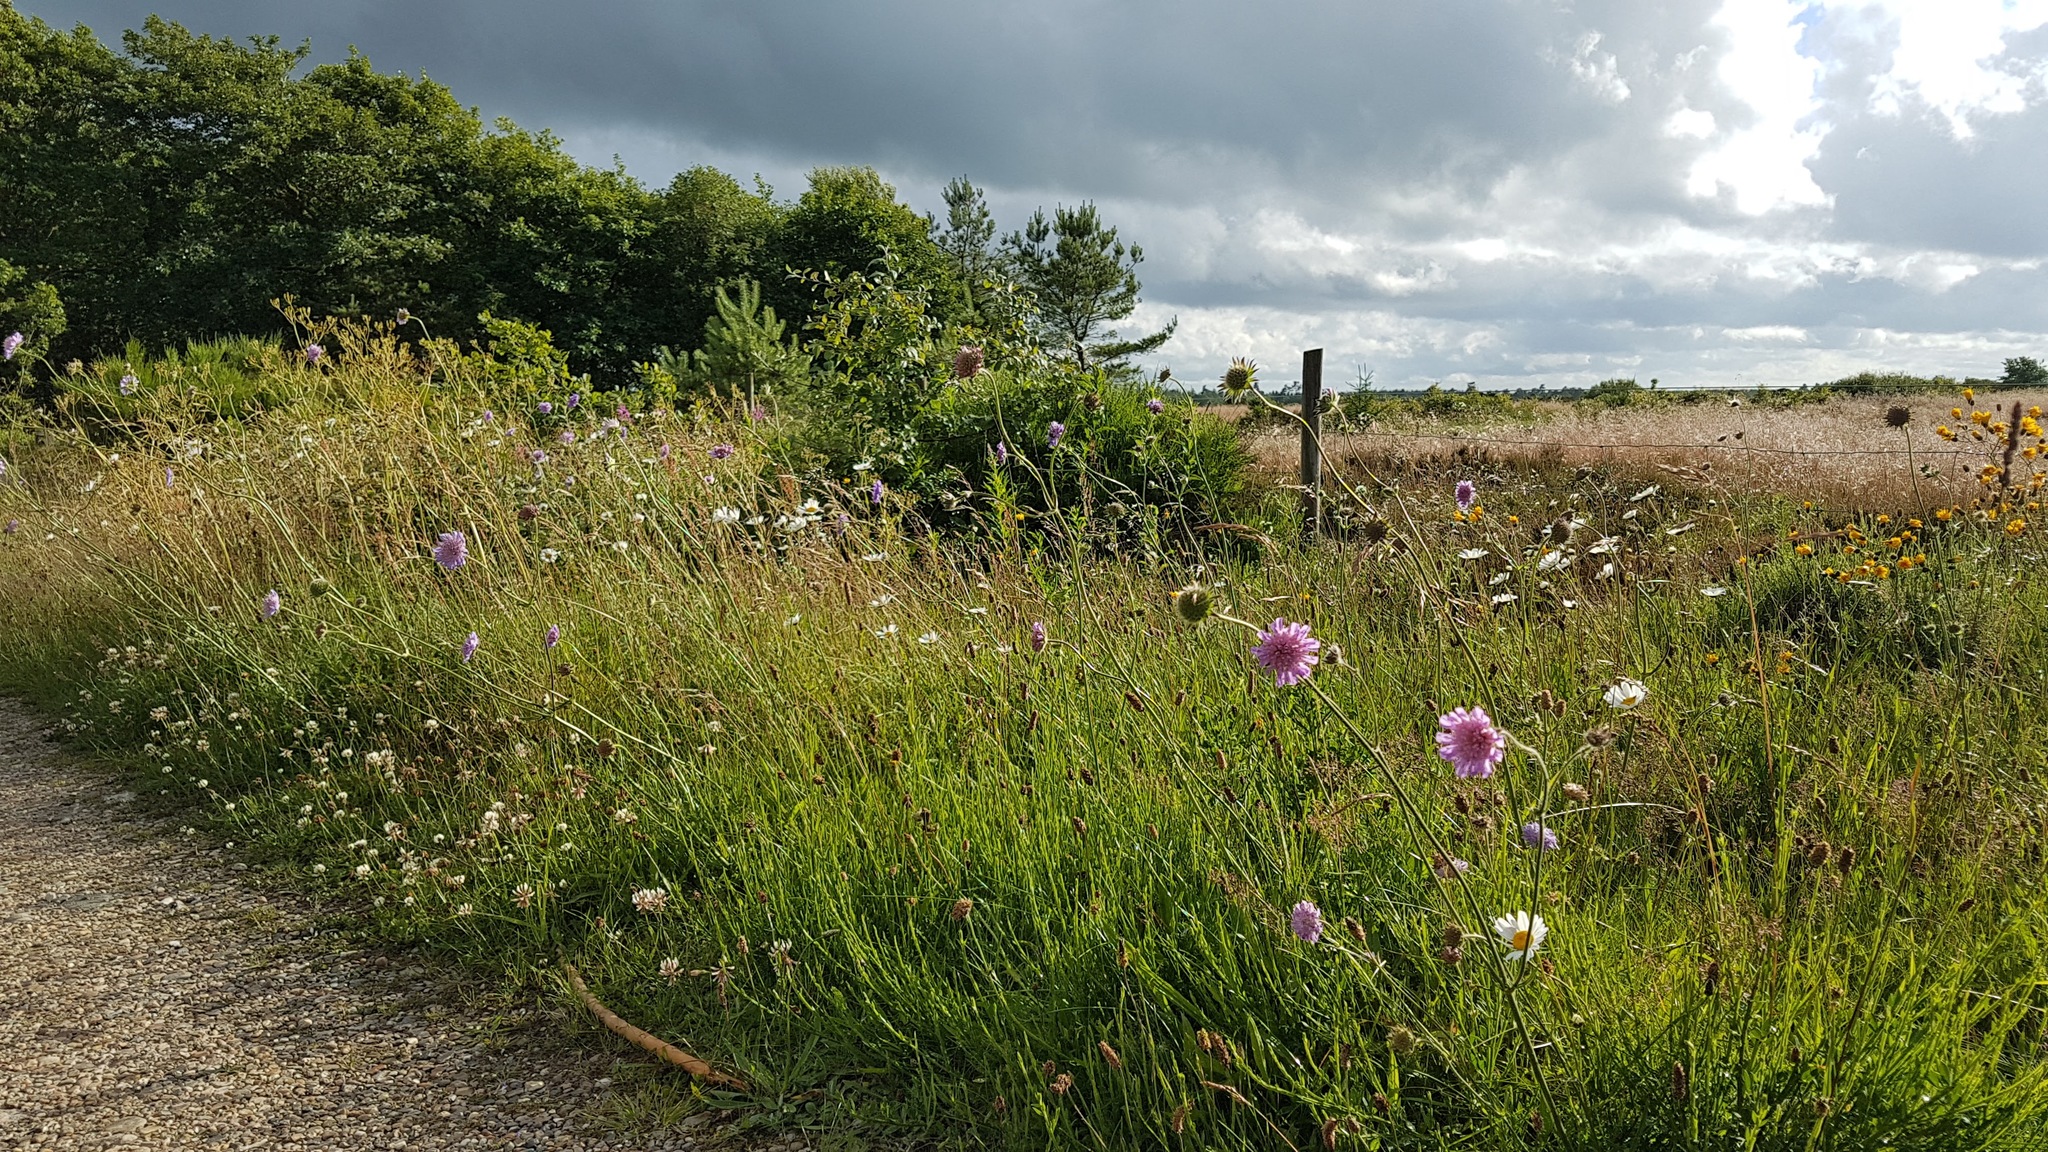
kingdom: Plantae
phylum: Tracheophyta
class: Magnoliopsida
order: Dipsacales
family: Caprifoliaceae
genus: Knautia
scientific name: Knautia arvensis
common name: Field scabiosa
